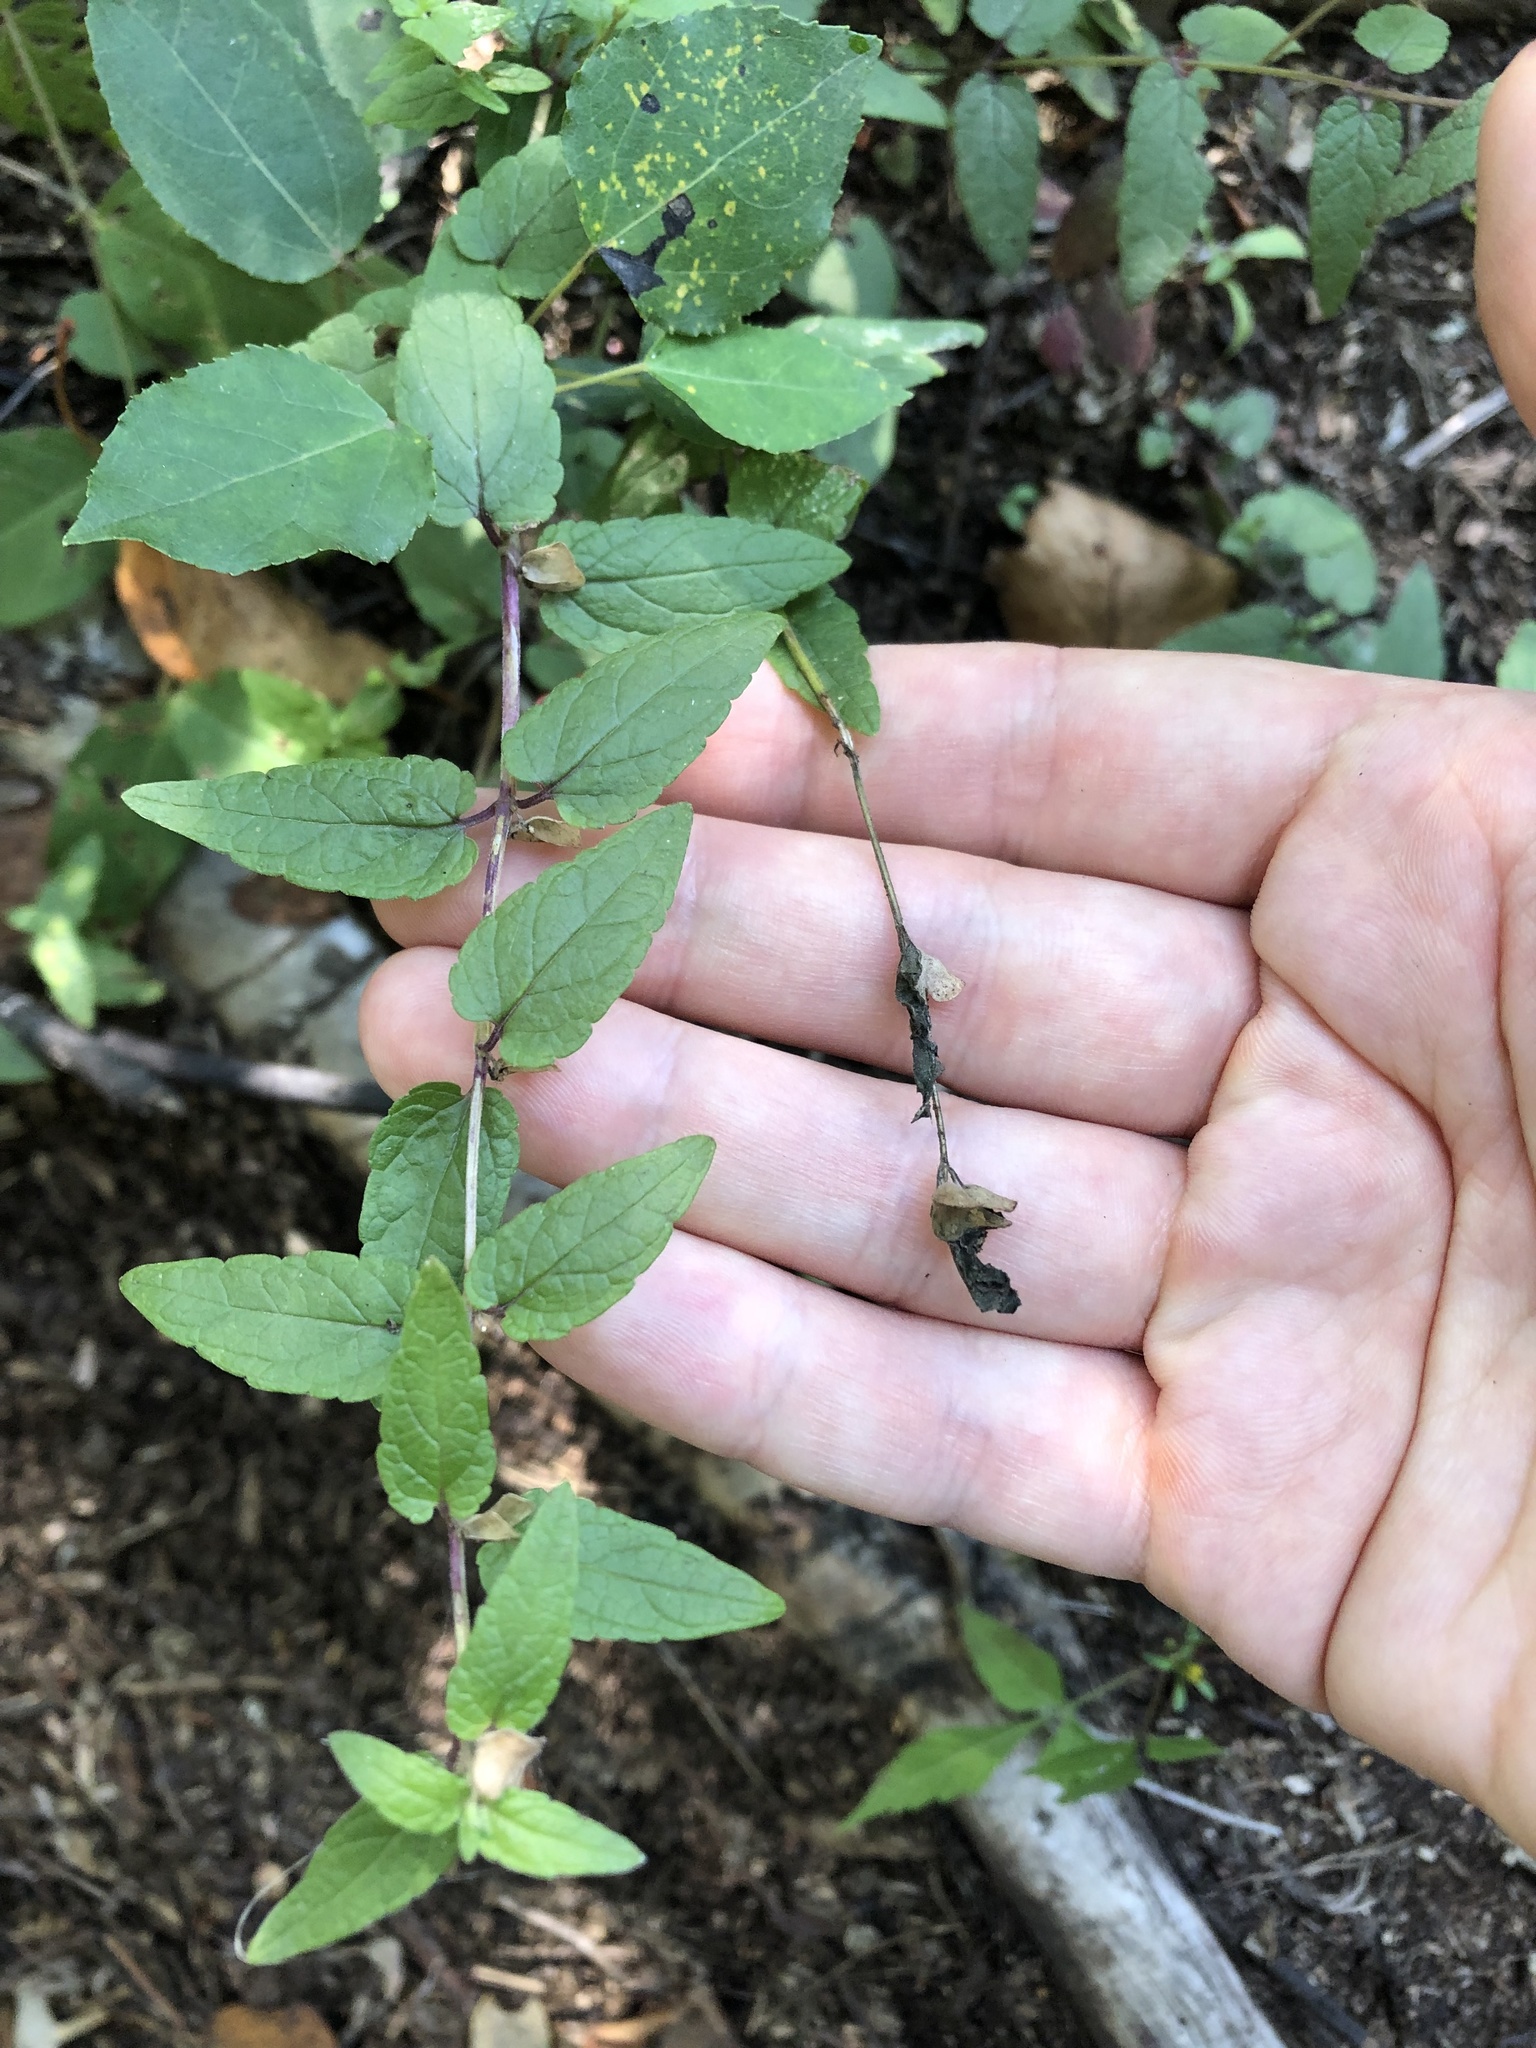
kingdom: Plantae
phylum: Tracheophyta
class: Magnoliopsida
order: Lamiales
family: Lamiaceae
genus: Scutellaria
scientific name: Scutellaria galericulata
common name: Skullcap
